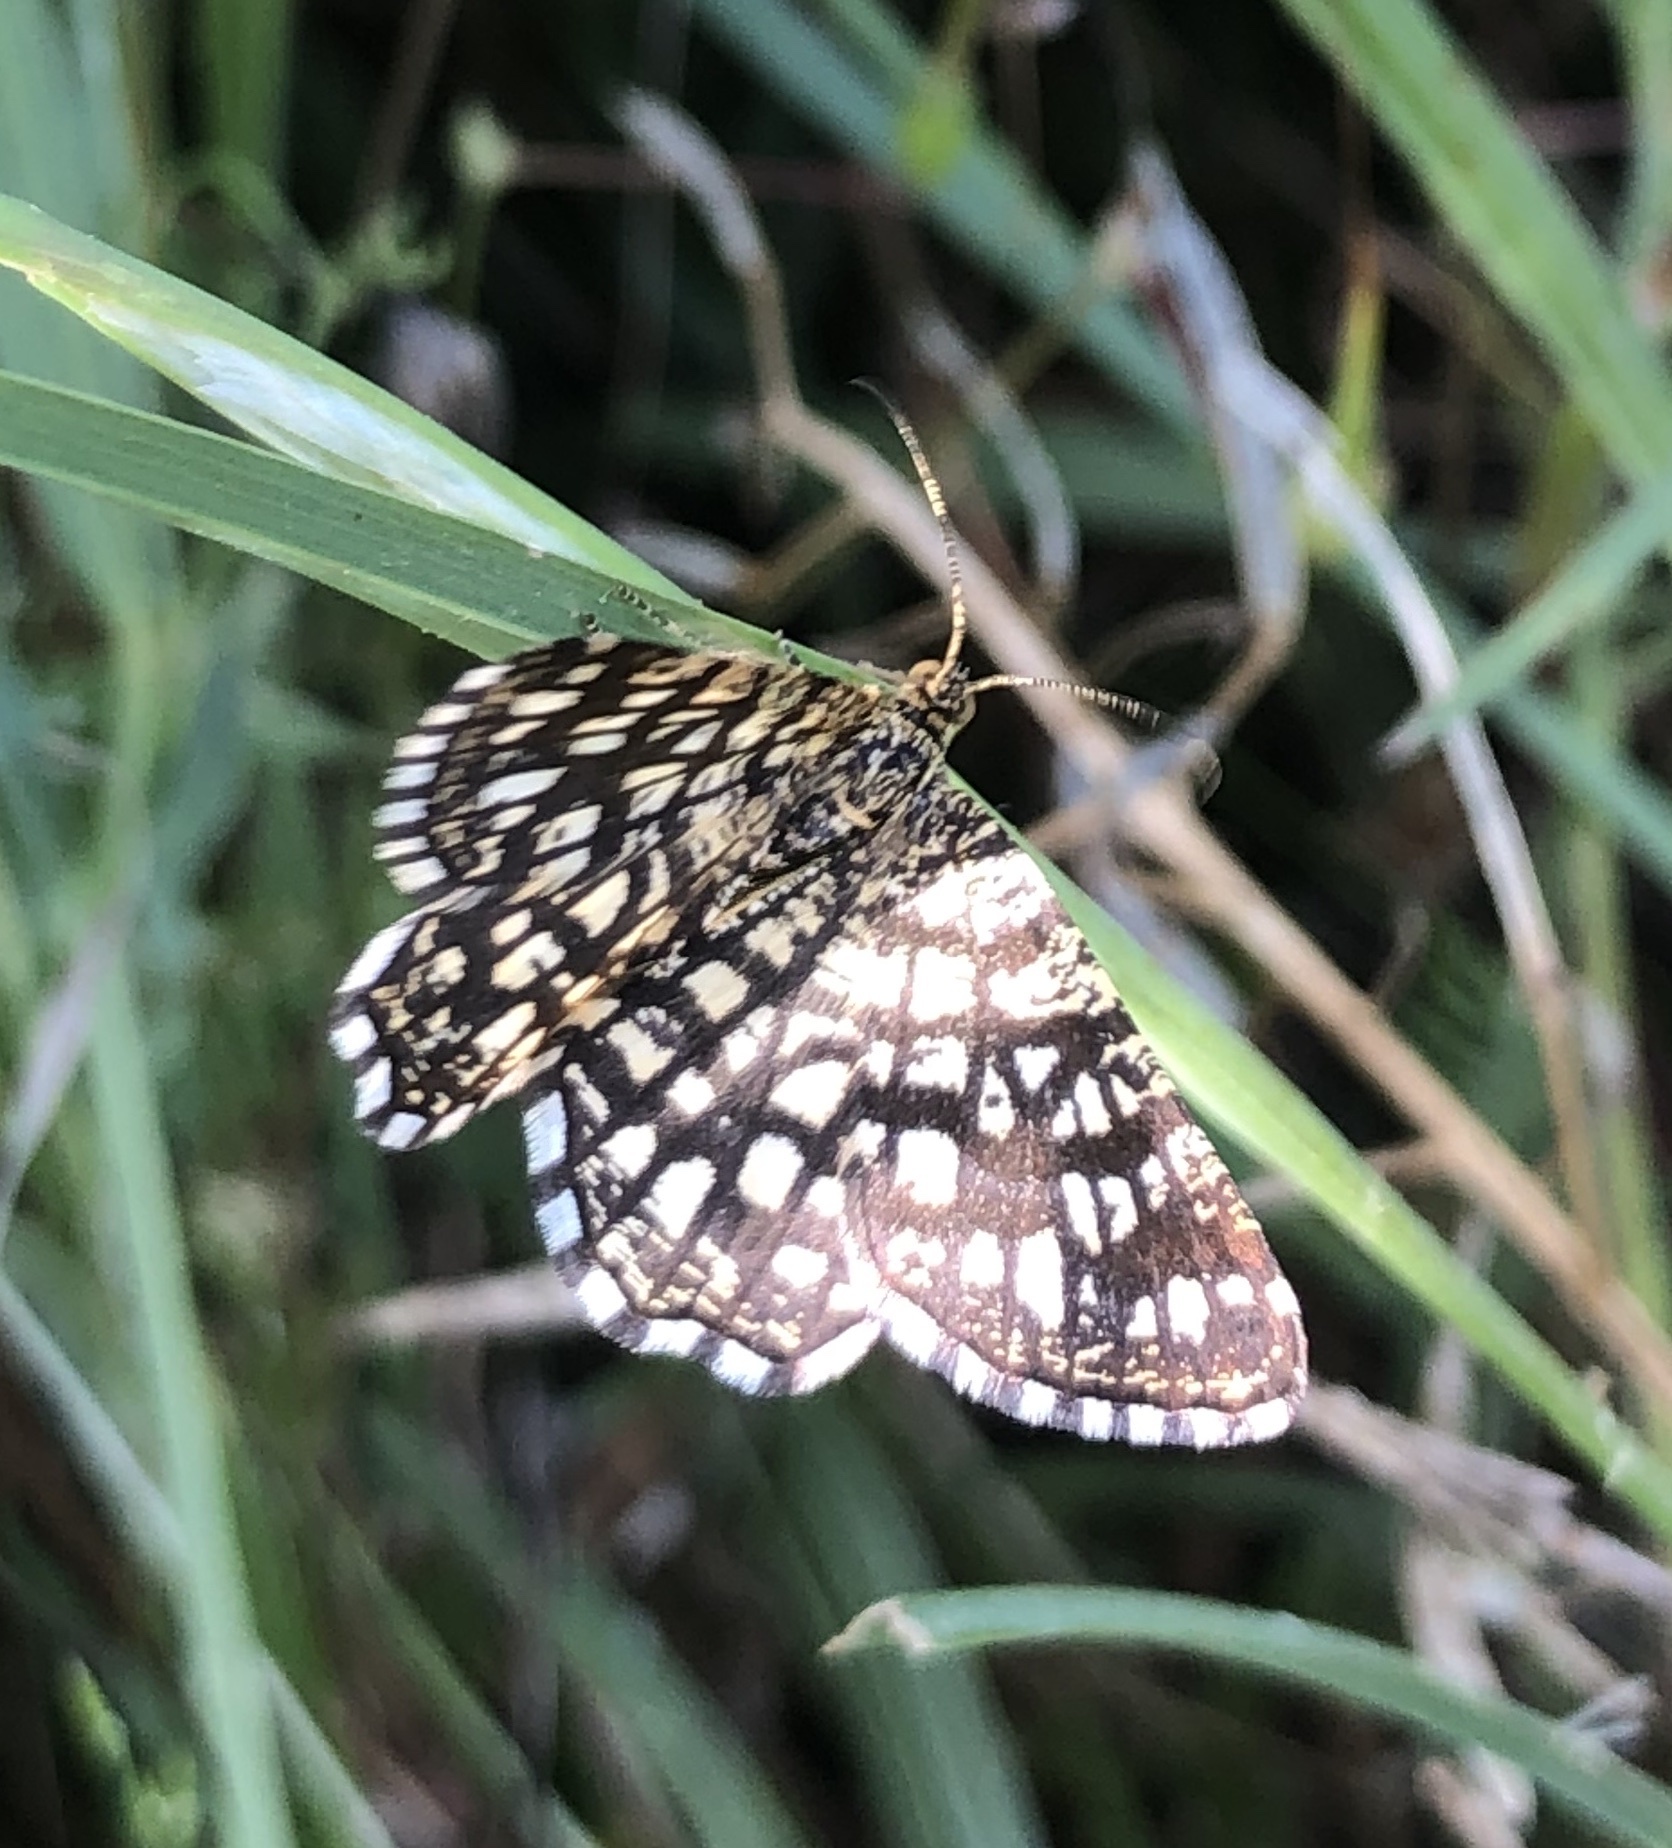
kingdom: Animalia
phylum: Arthropoda
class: Insecta
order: Lepidoptera
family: Geometridae
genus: Chiasmia
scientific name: Chiasmia clathrata
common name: Latticed heath
